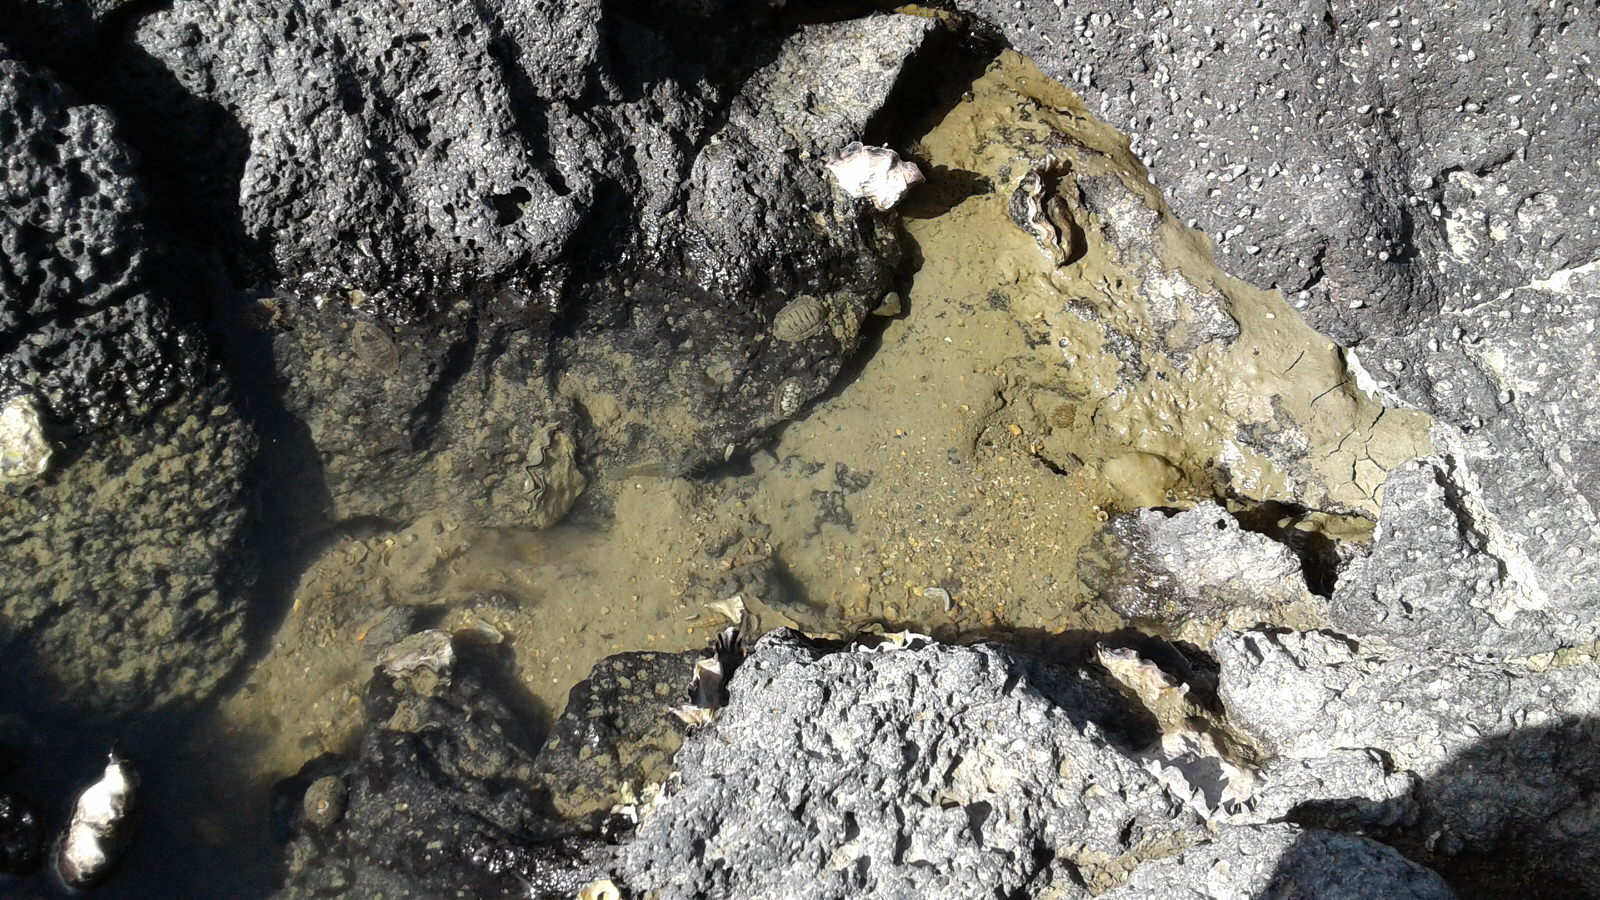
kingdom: Animalia
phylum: Arthropoda
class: Malacostraca
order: Decapoda
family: Palaemonidae
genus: Palaemon
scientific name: Palaemon affinis
